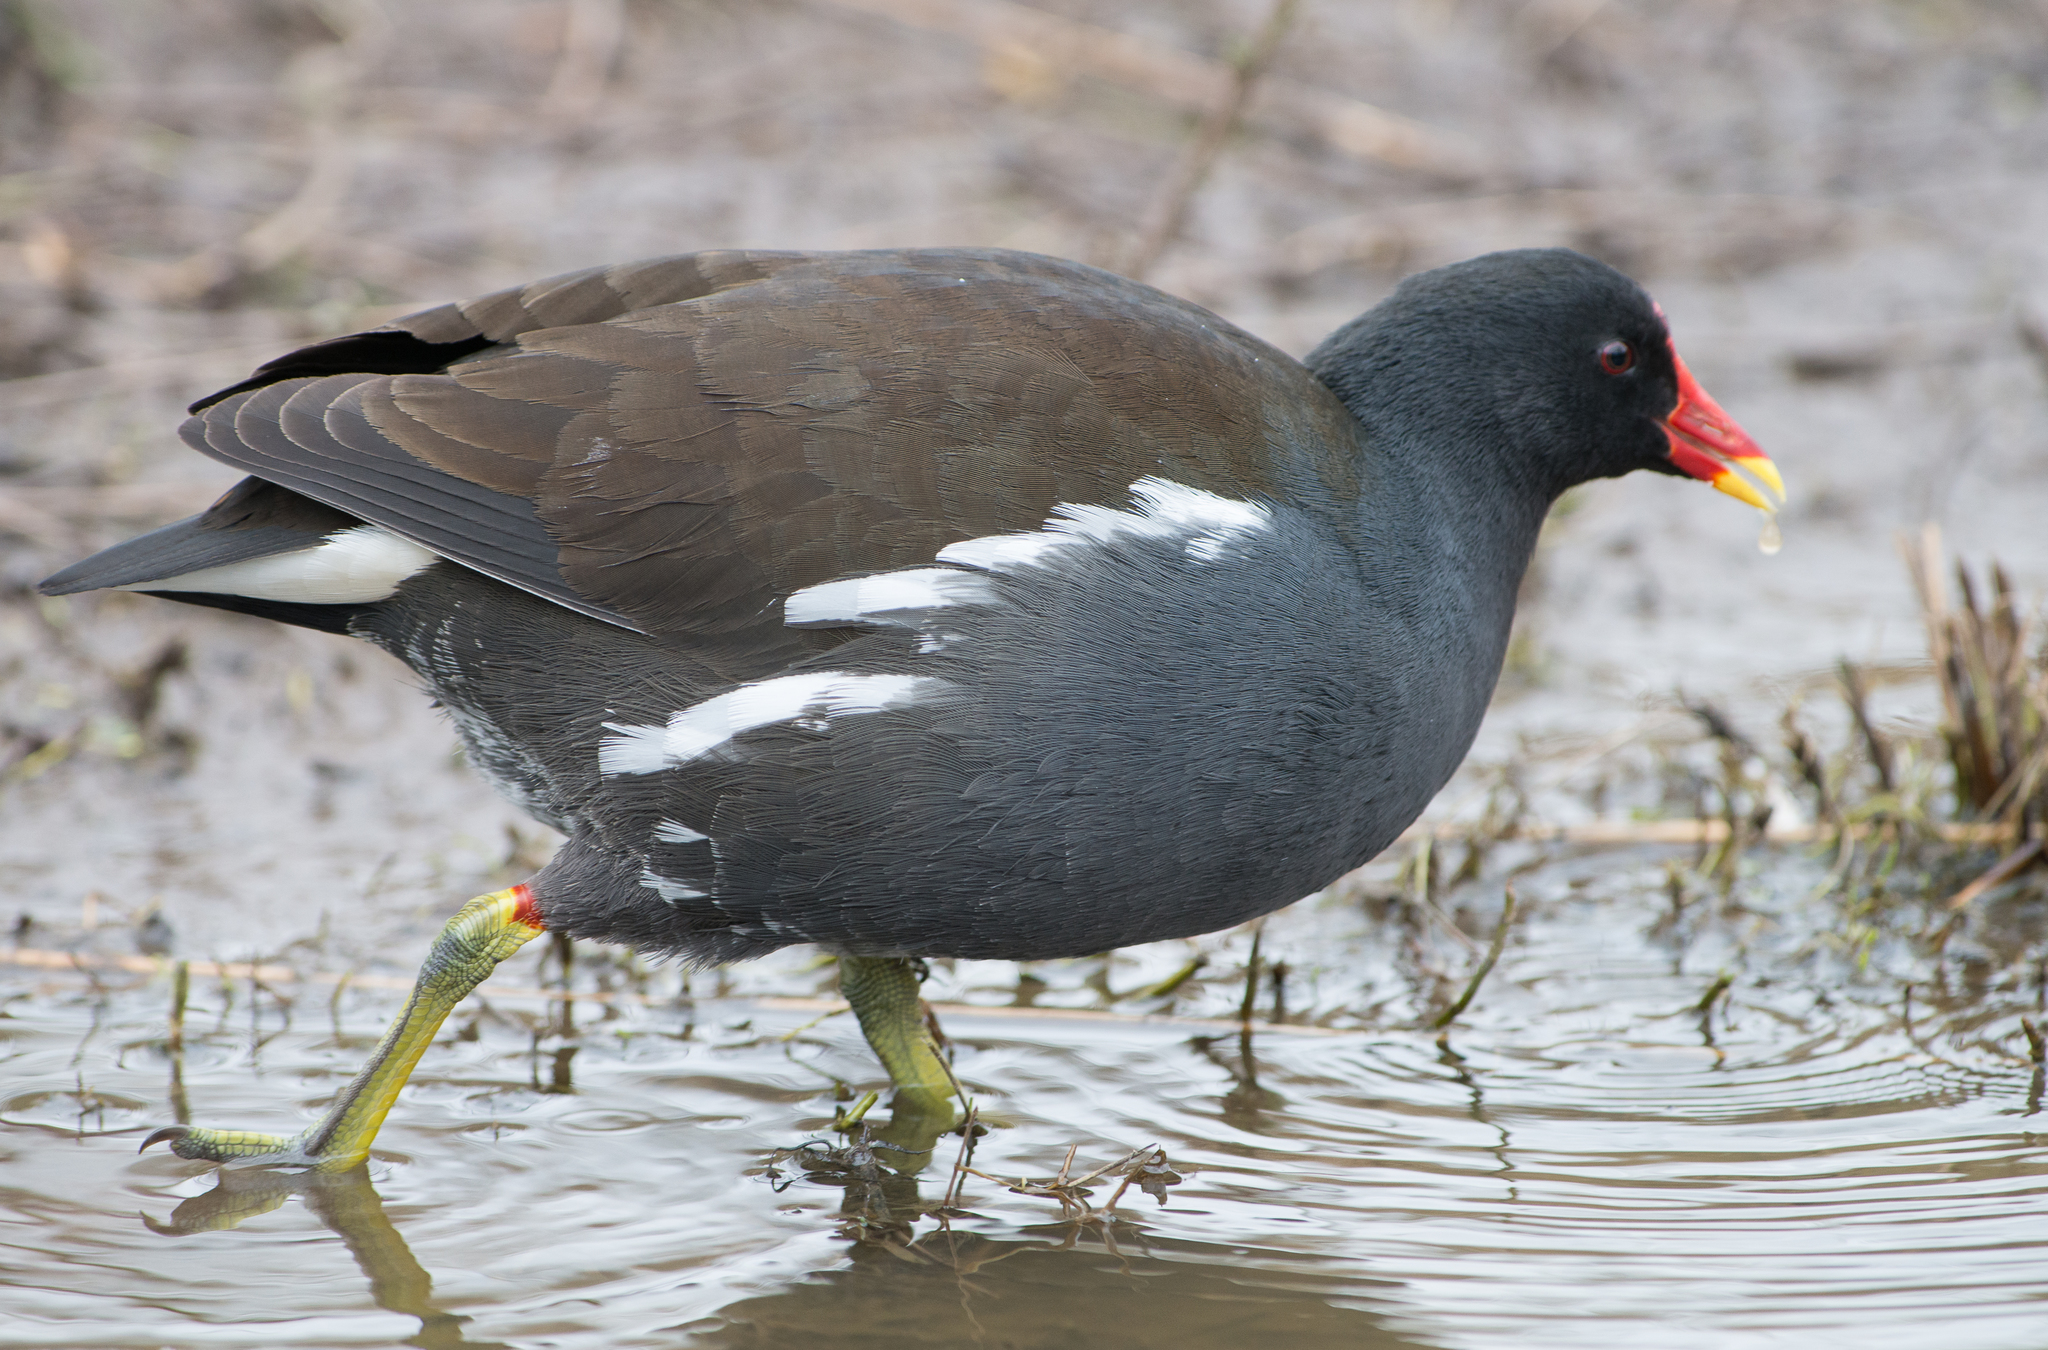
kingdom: Animalia
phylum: Chordata
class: Aves
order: Gruiformes
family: Rallidae
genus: Gallinula
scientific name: Gallinula chloropus
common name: Common moorhen
